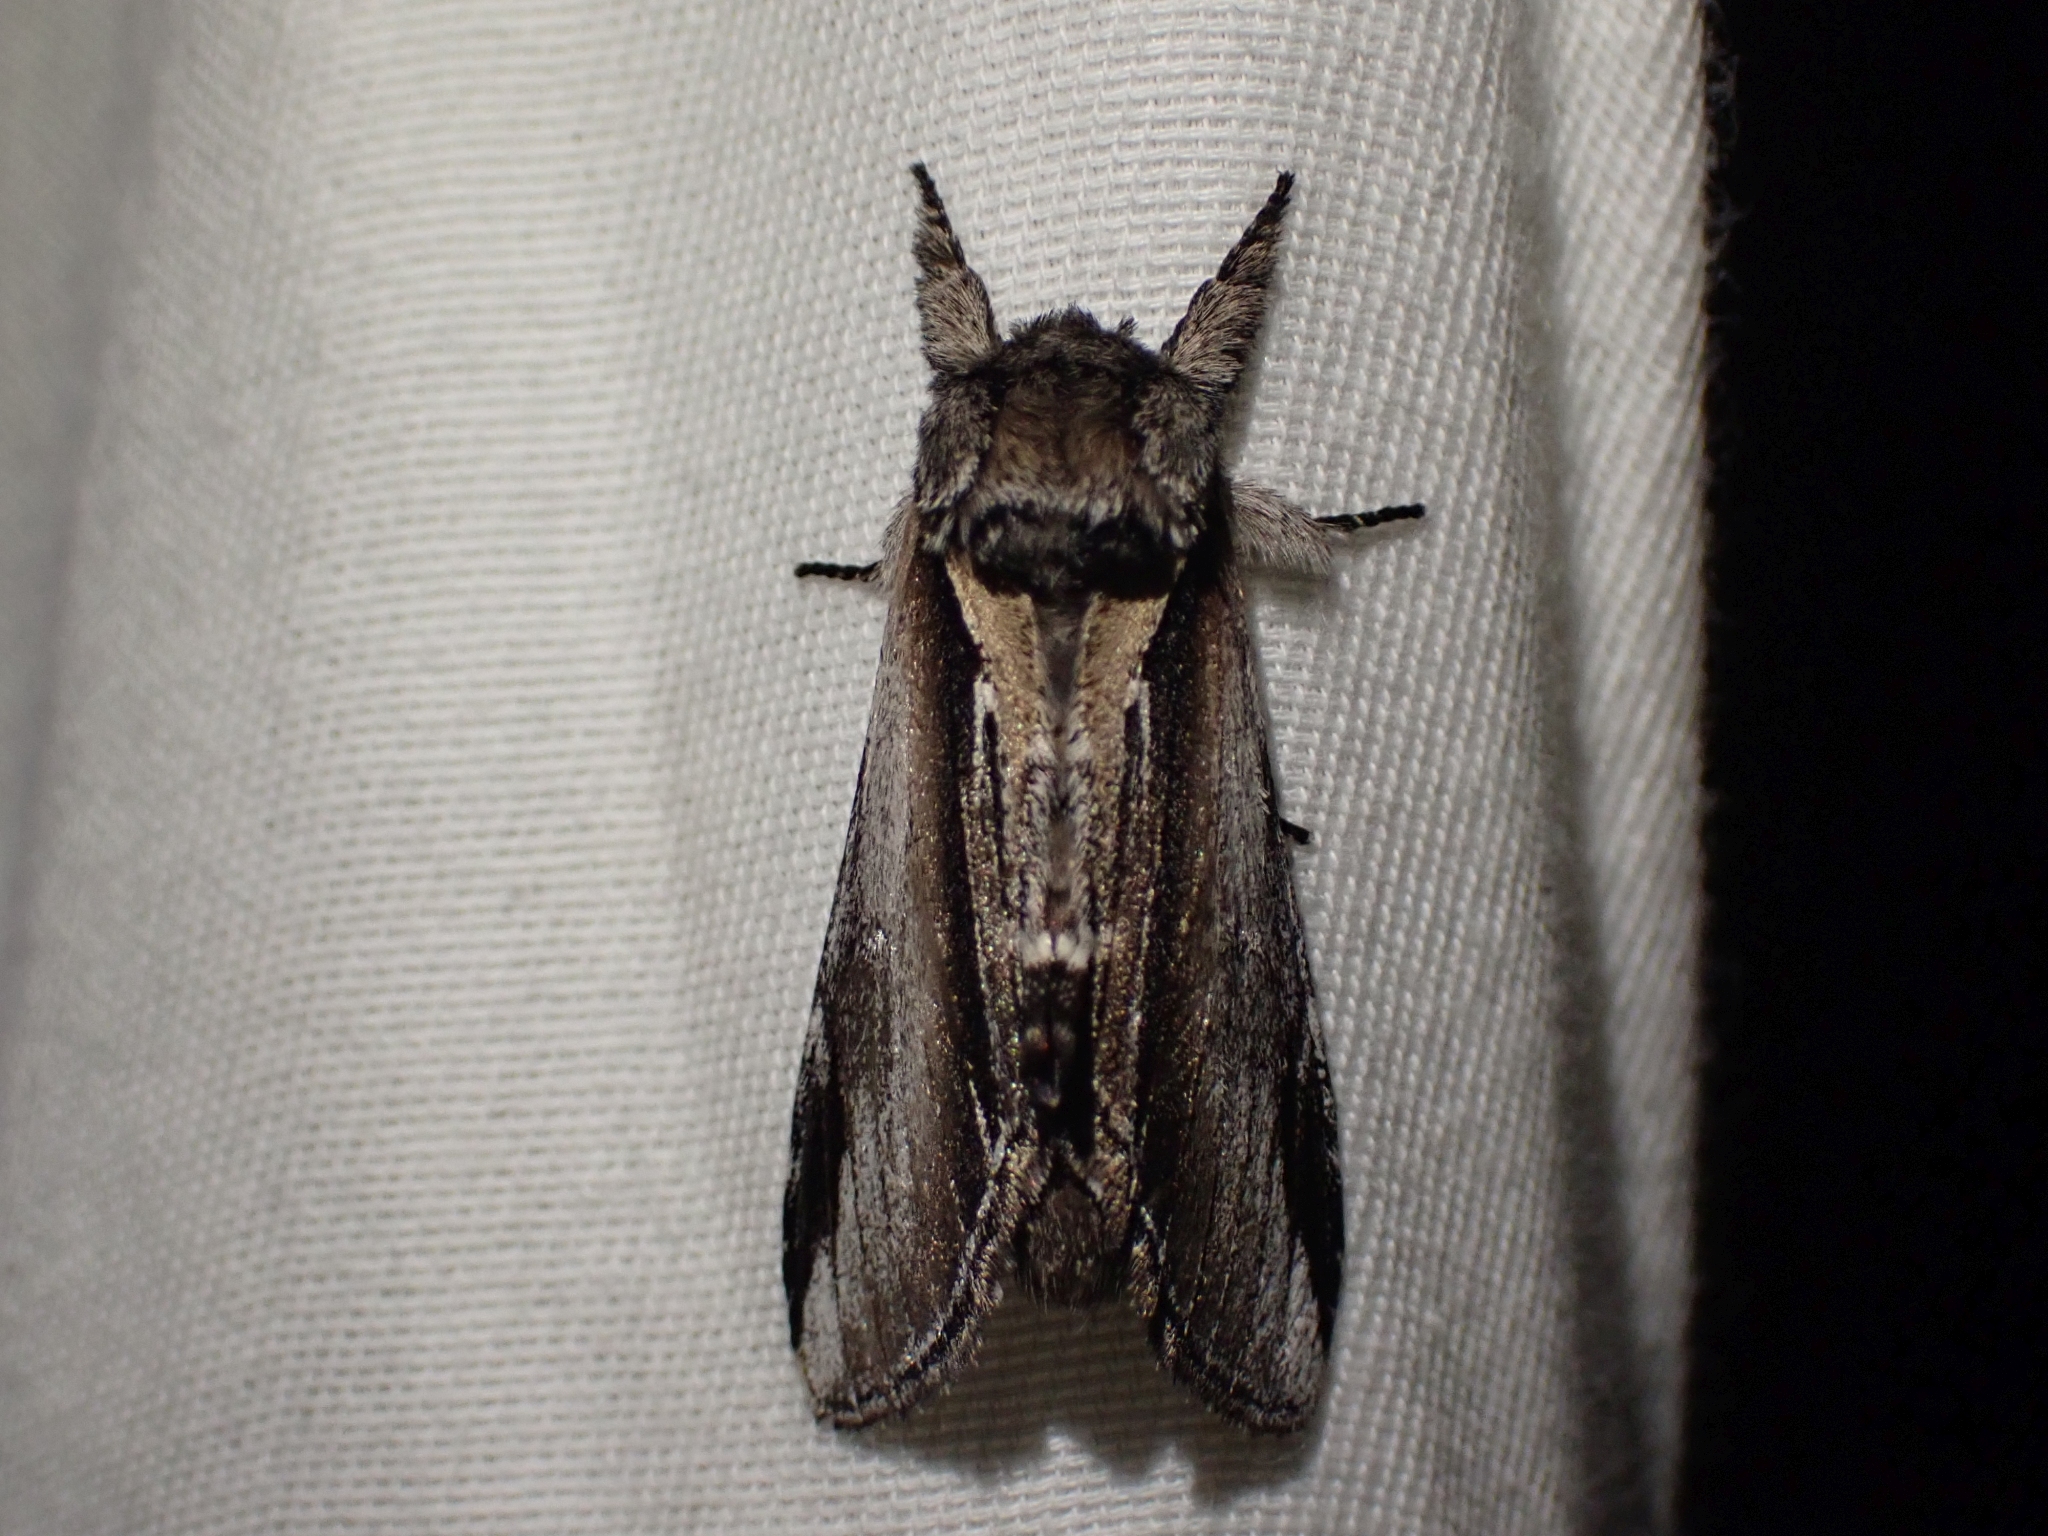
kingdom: Animalia
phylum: Arthropoda
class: Insecta
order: Lepidoptera
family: Notodontidae
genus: Pheosia
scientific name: Pheosia rimosa
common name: Black-rimmed prominent
